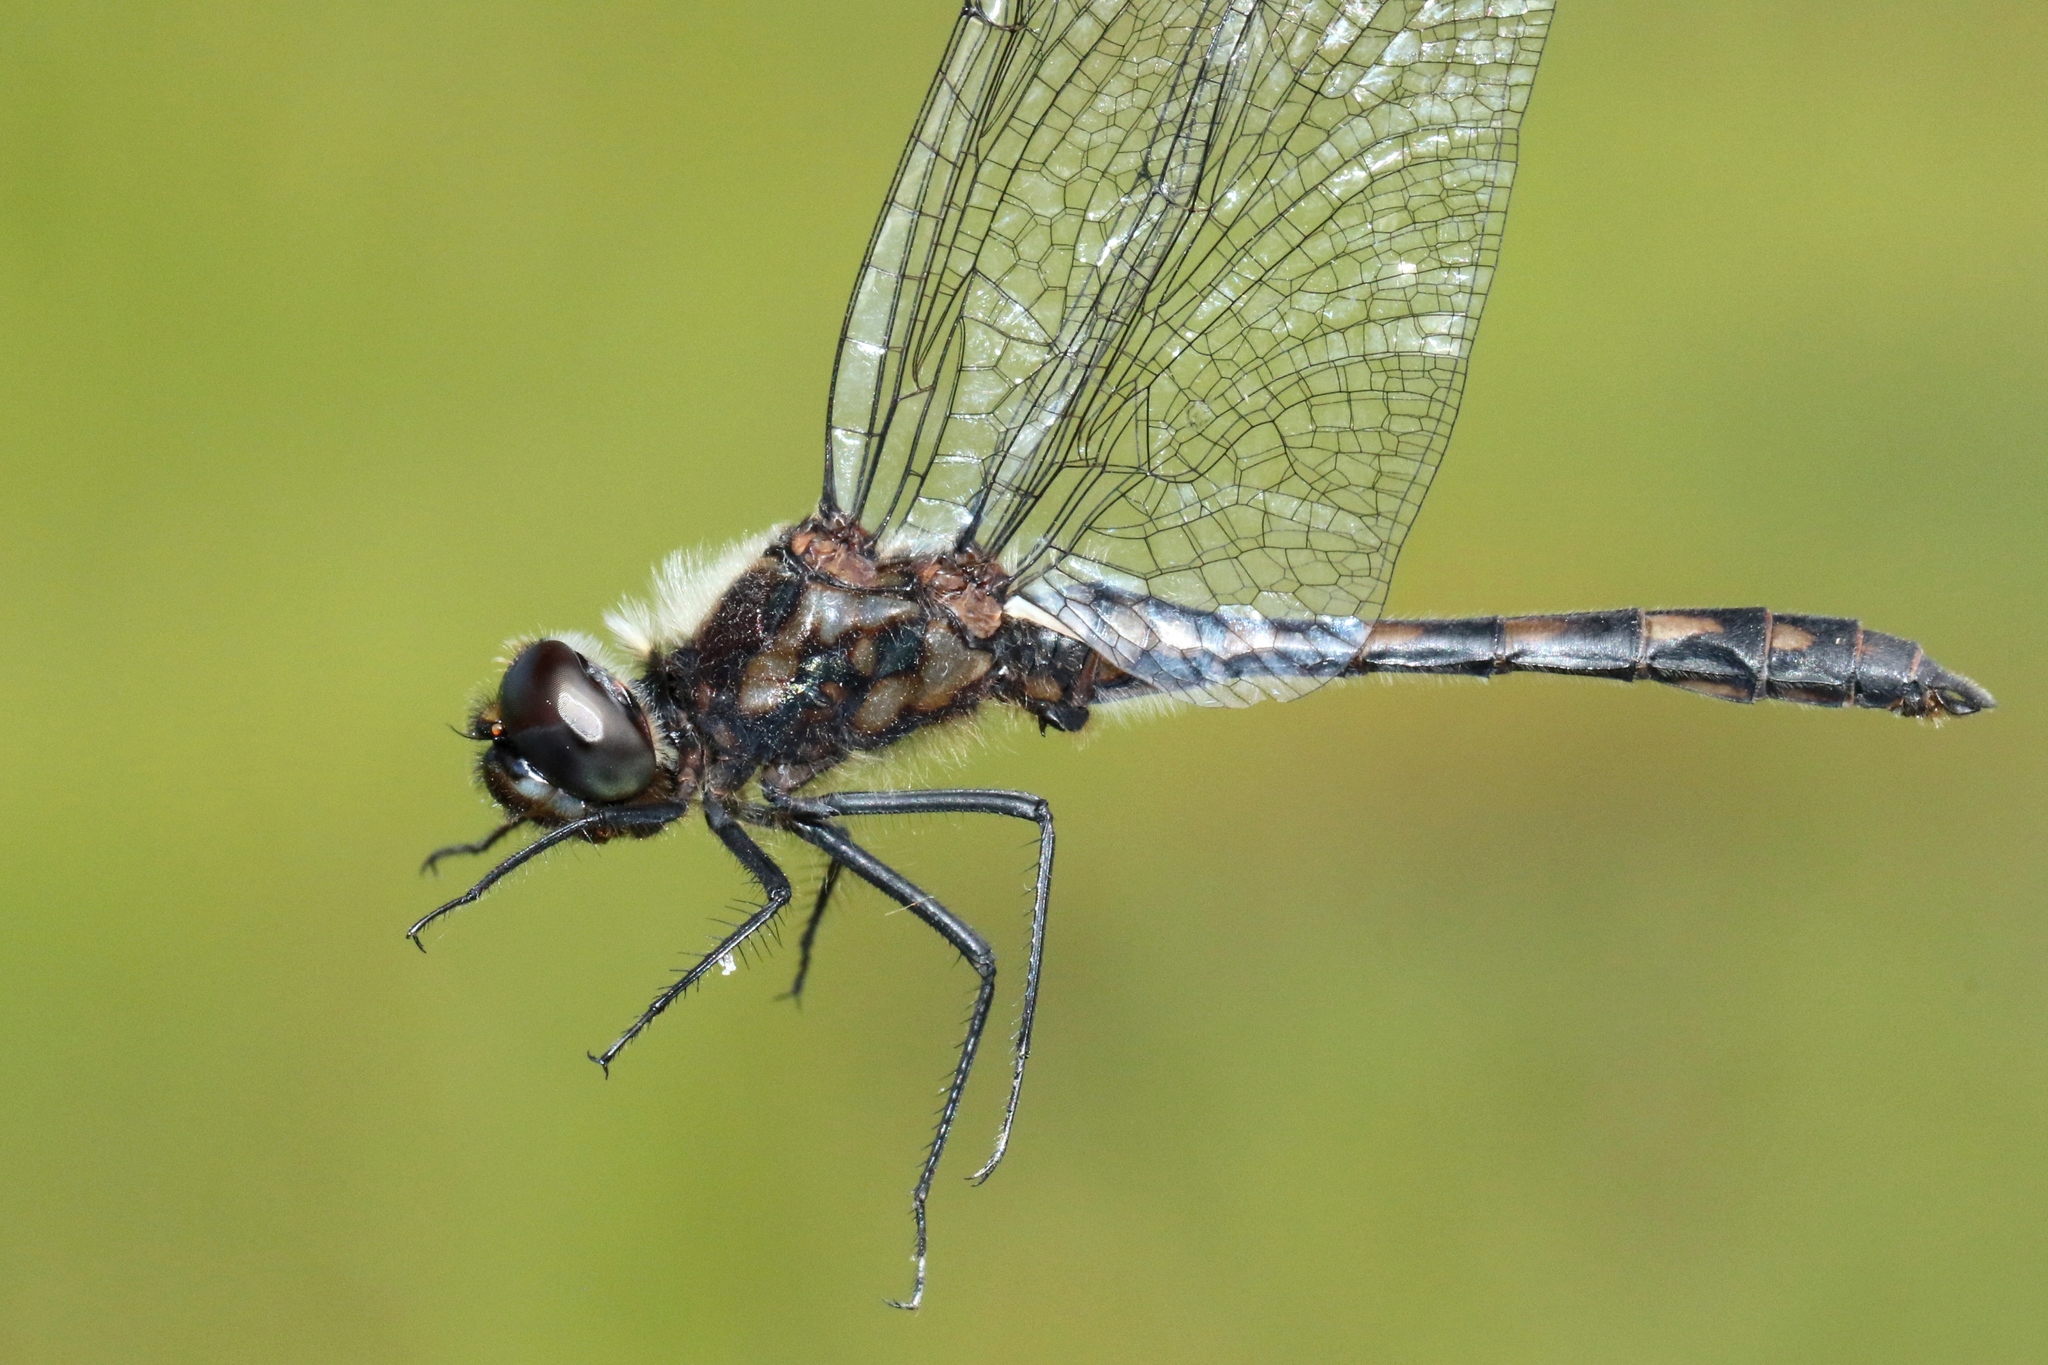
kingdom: Animalia
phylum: Arthropoda
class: Insecta
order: Odonata
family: Libellulidae
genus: Sympetrum
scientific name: Sympetrum danae
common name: Black darter
